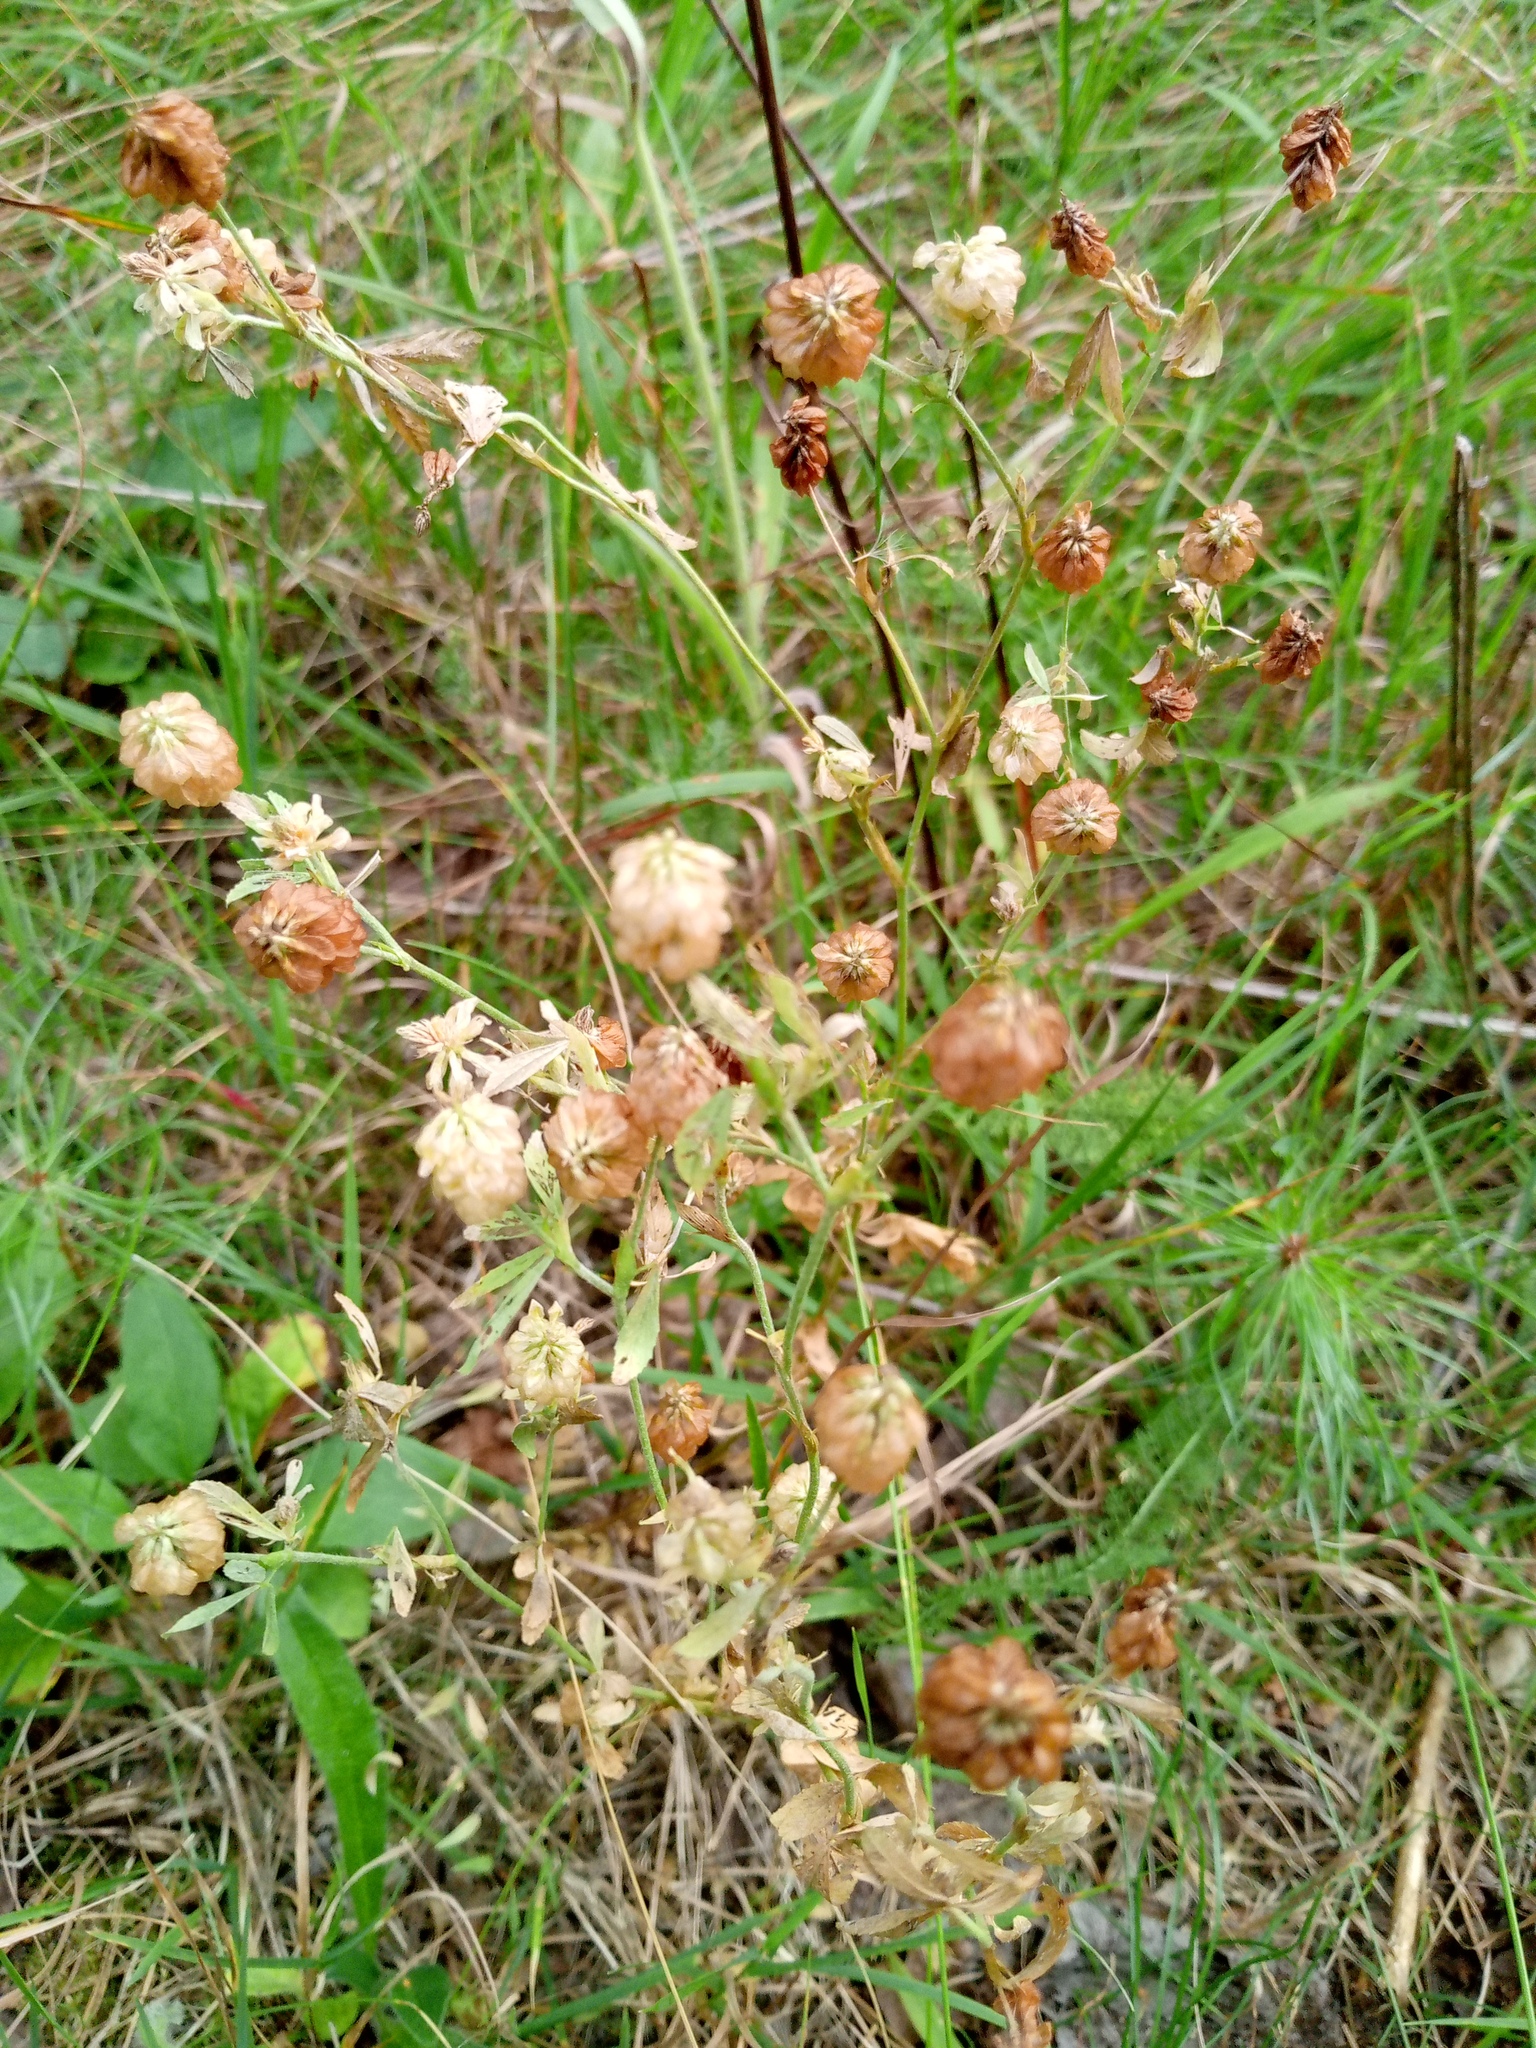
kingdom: Plantae
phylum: Tracheophyta
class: Magnoliopsida
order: Fabales
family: Fabaceae
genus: Trifolium
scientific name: Trifolium aureum
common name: Golden clover
